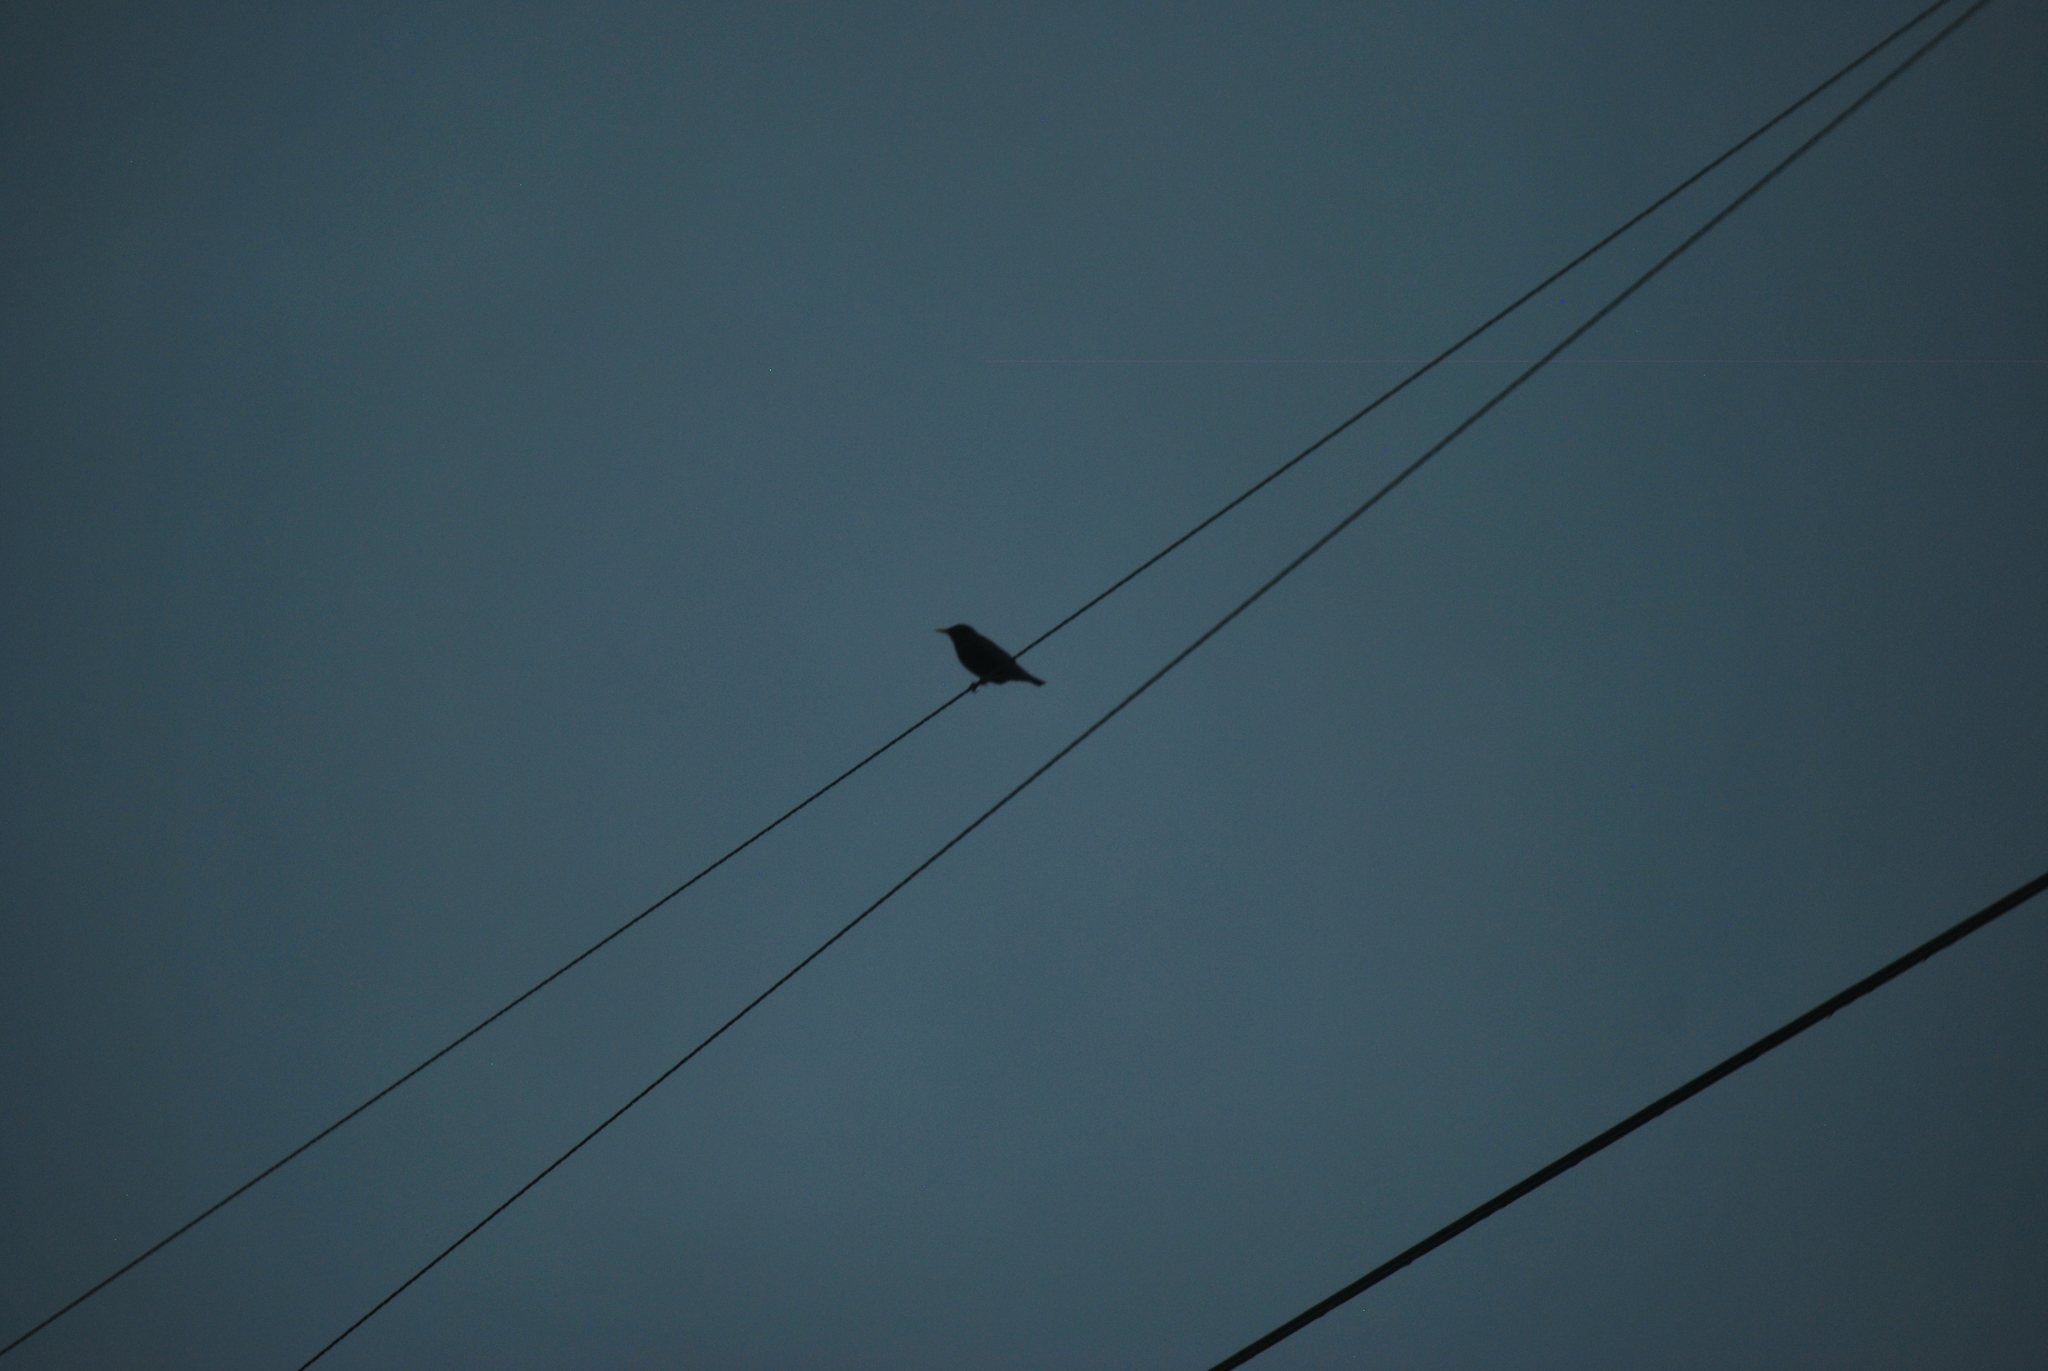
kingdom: Animalia
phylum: Chordata
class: Aves
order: Passeriformes
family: Sturnidae
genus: Sturnus
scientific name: Sturnus vulgaris
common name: Common starling
